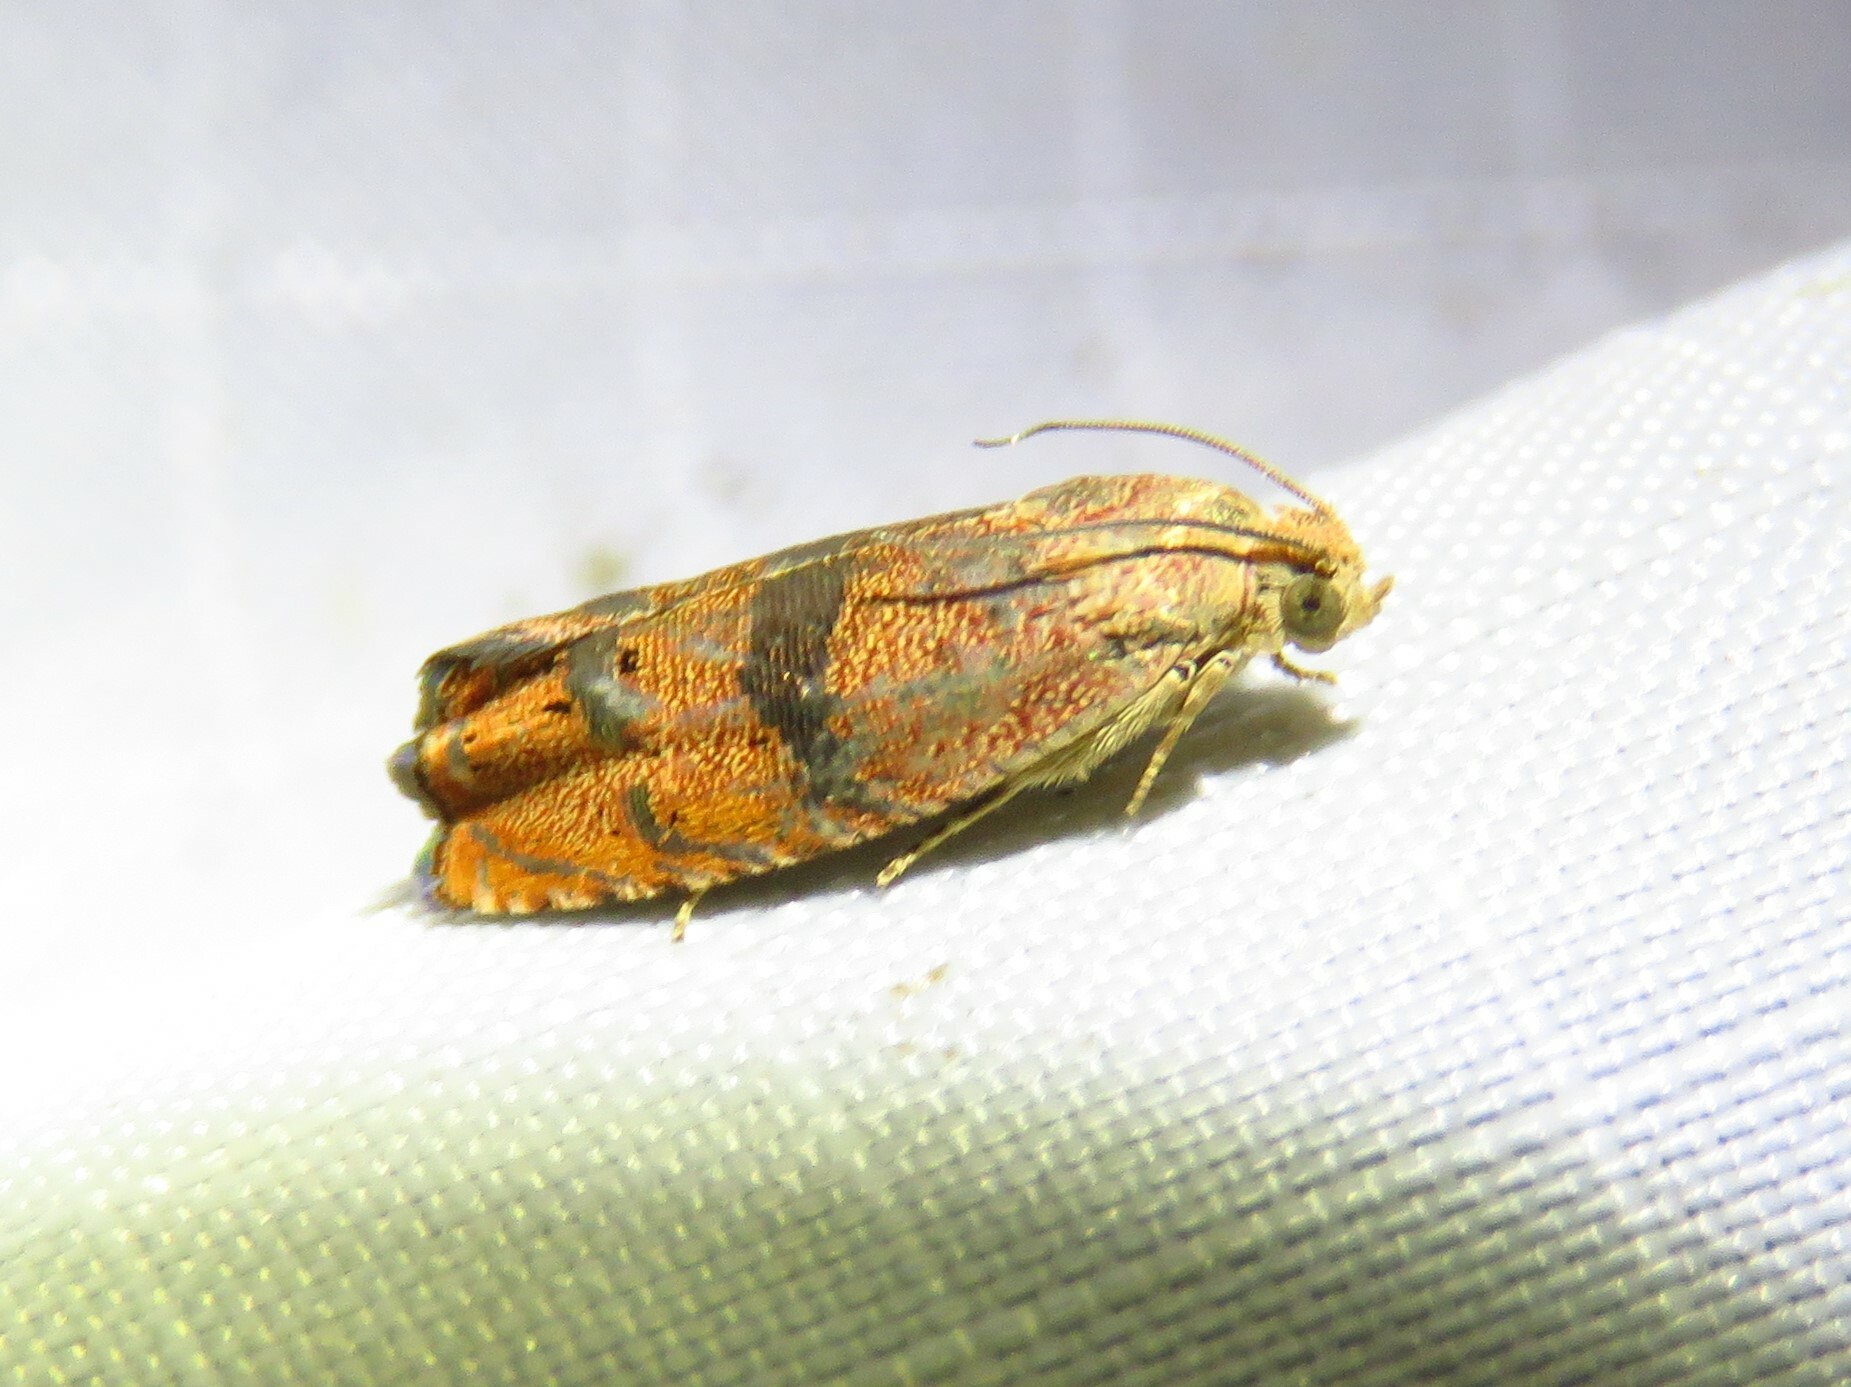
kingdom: Animalia
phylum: Arthropoda
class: Insecta
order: Lepidoptera
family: Tortricidae
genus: Cydia
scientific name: Cydia latiferreana
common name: Filbertworm moth
